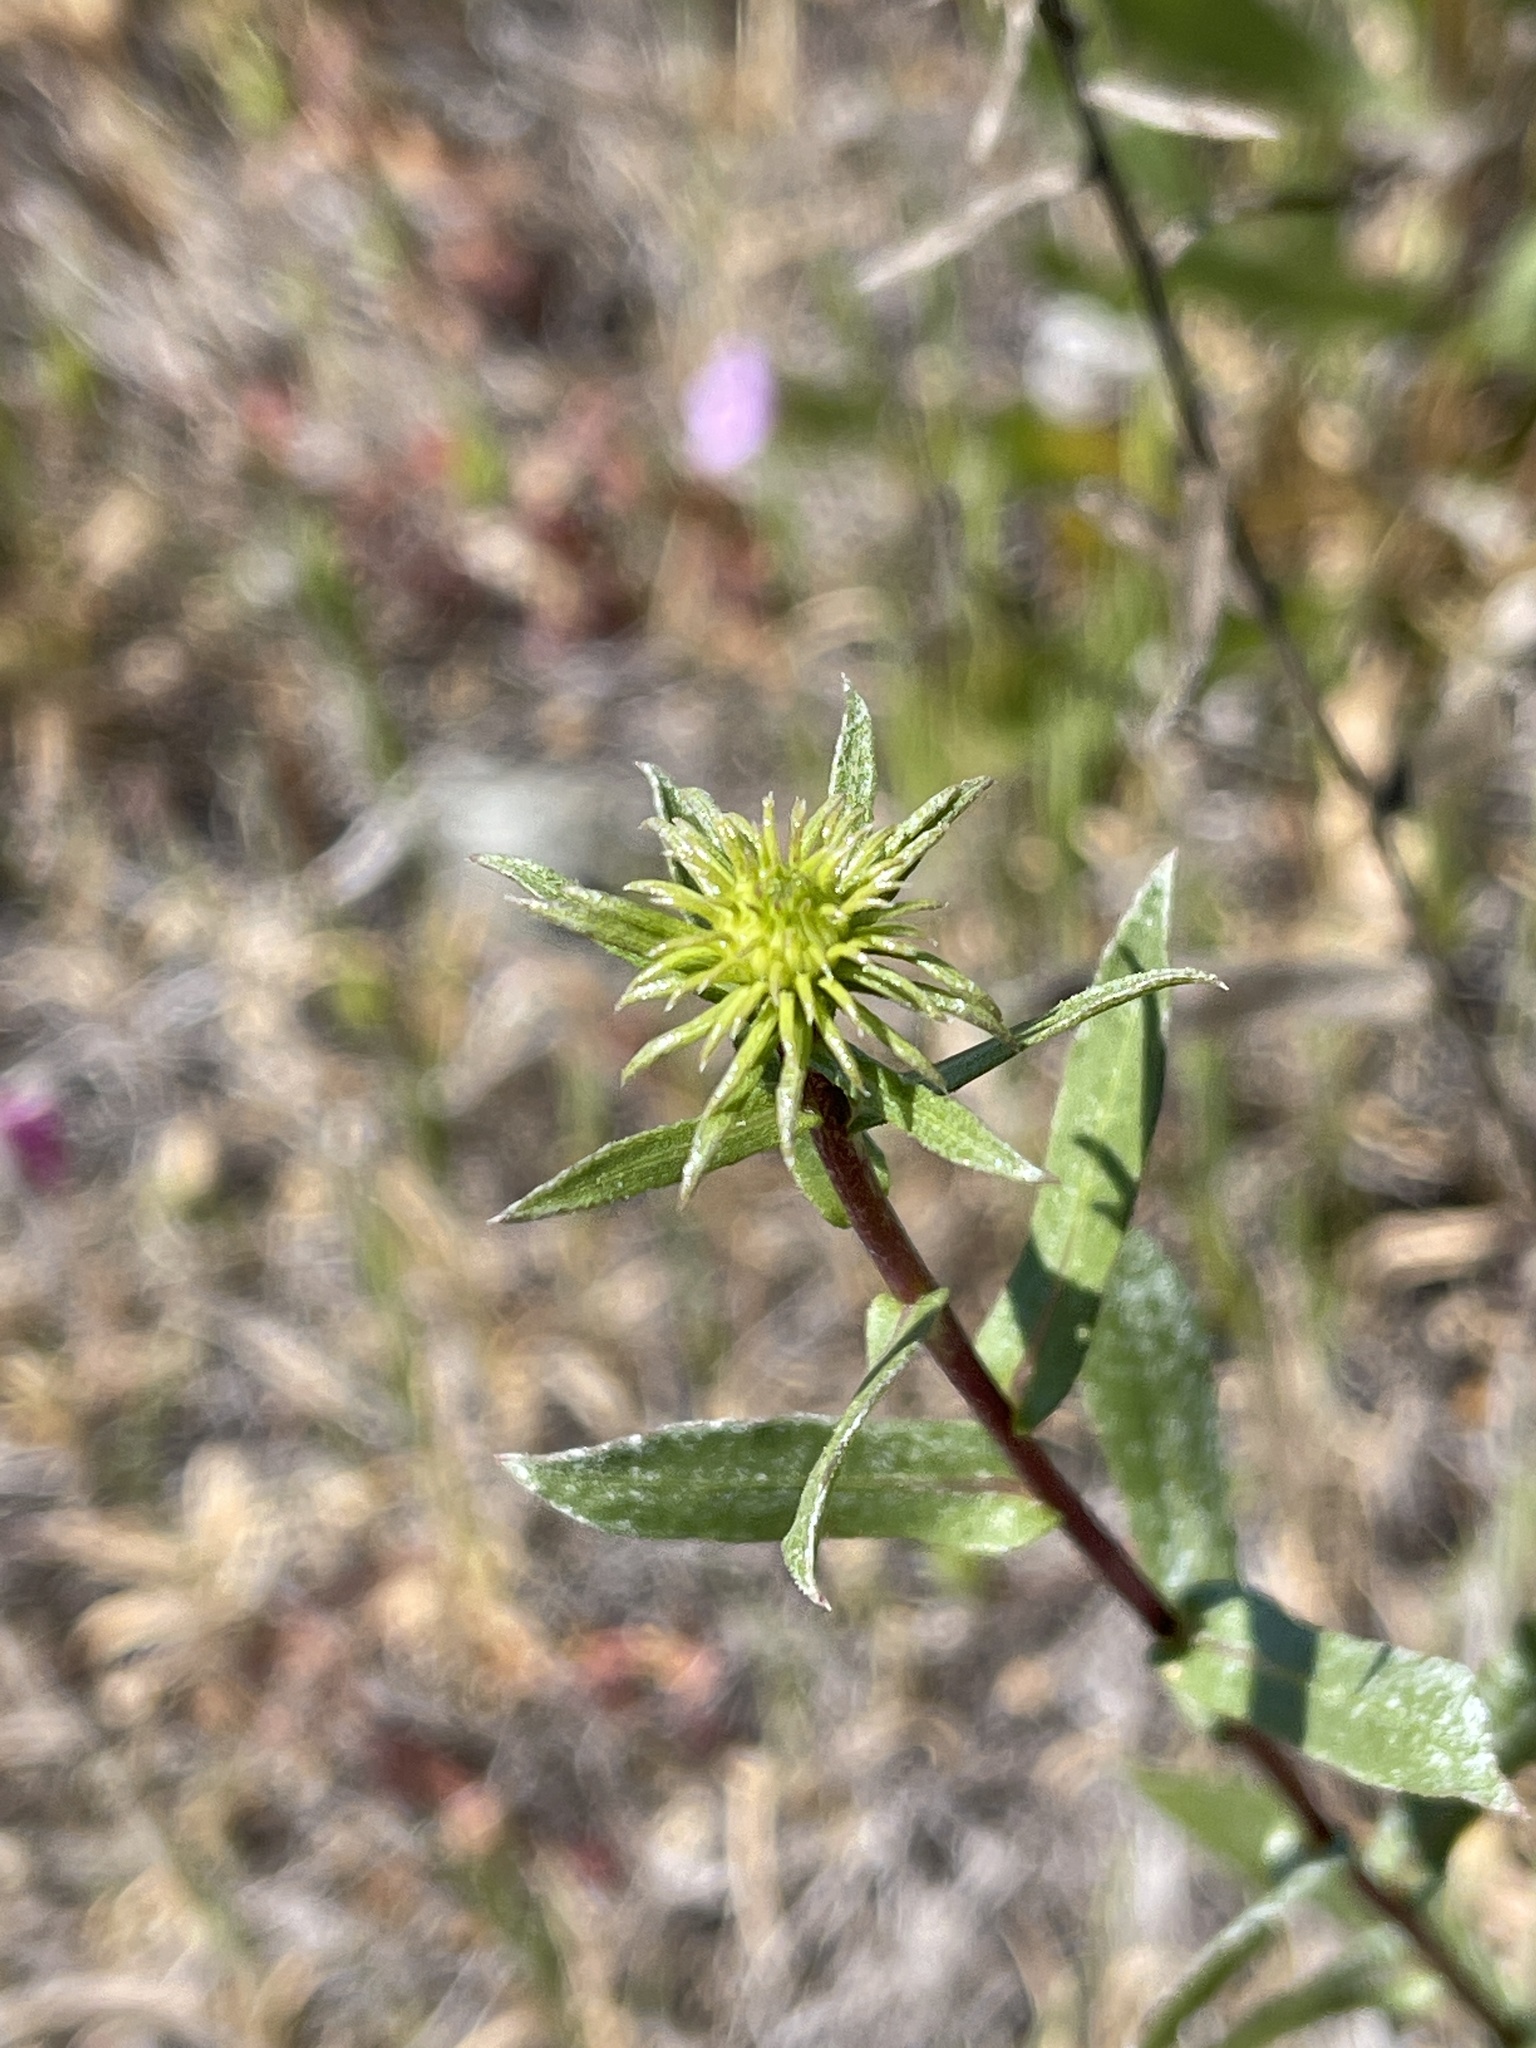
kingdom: Plantae
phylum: Tracheophyta
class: Magnoliopsida
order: Asterales
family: Asteraceae
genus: Grindelia
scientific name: Grindelia hirsutula
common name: Hairy gumweed
